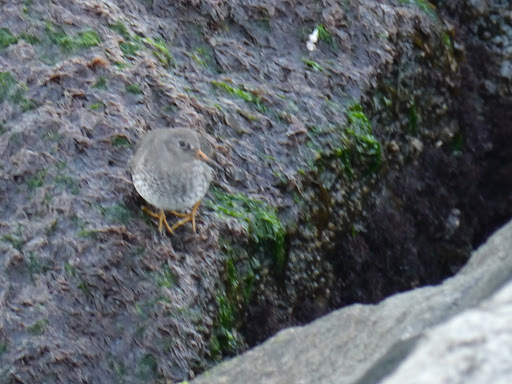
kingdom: Animalia
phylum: Chordata
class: Aves
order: Charadriiformes
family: Scolopacidae
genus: Calidris
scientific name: Calidris maritima
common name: Purple sandpiper
